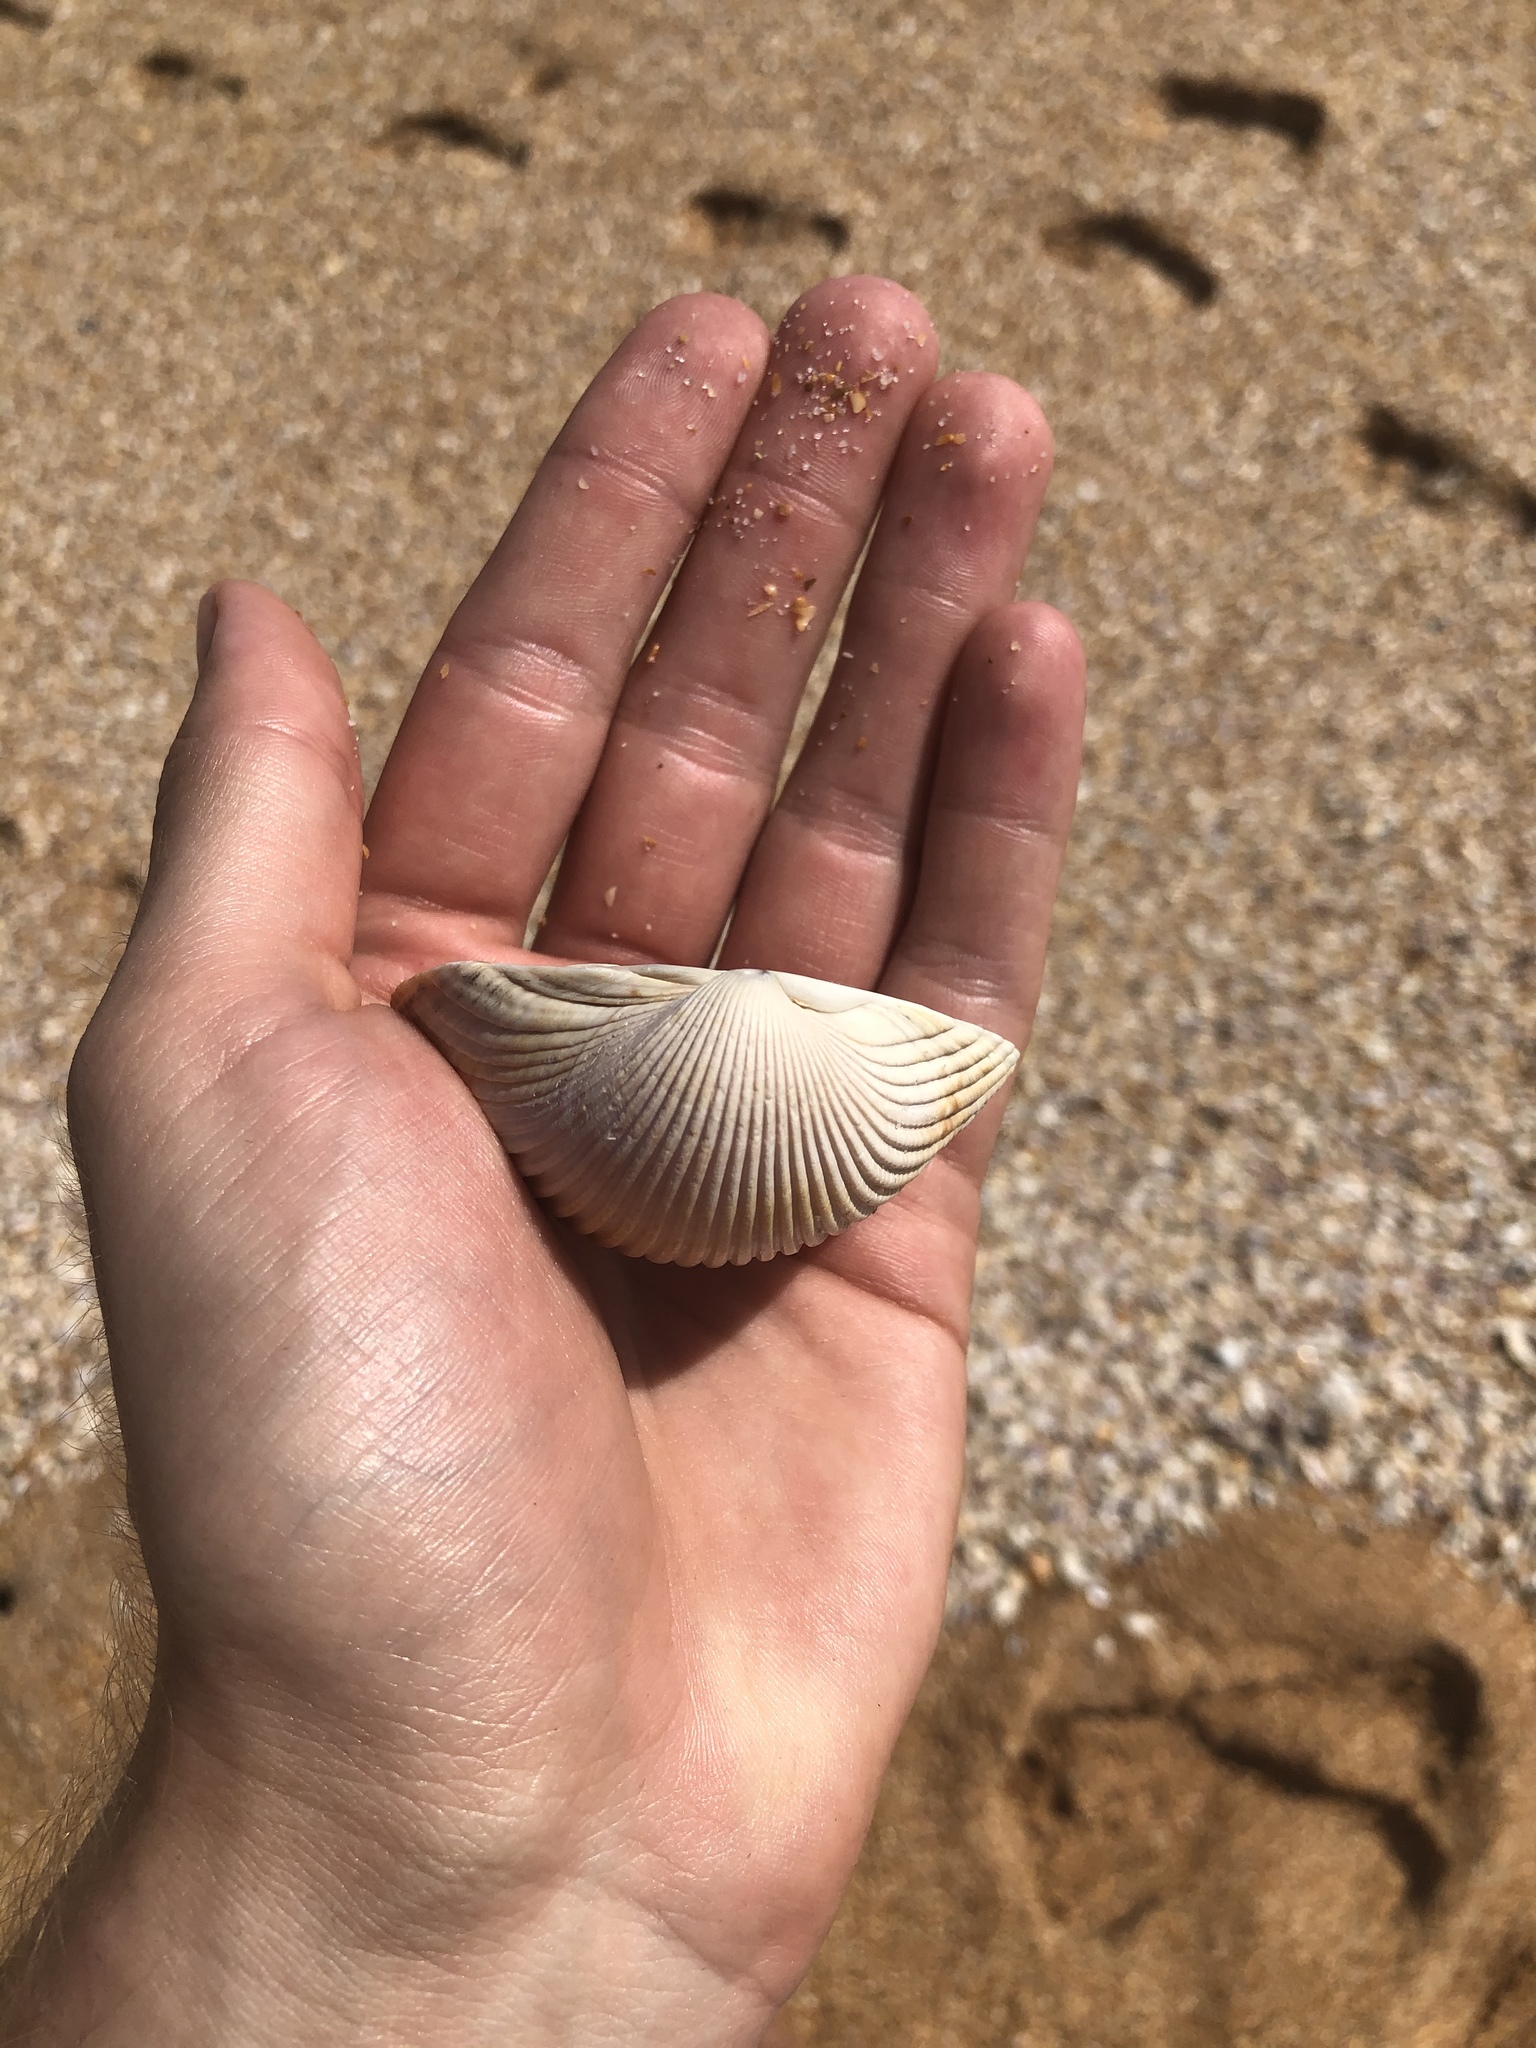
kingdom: Animalia
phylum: Mollusca
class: Bivalvia
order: Cardiida
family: Cardiidae
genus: Dinocardium
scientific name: Dinocardium robustum
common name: Atlantic giant cockle
